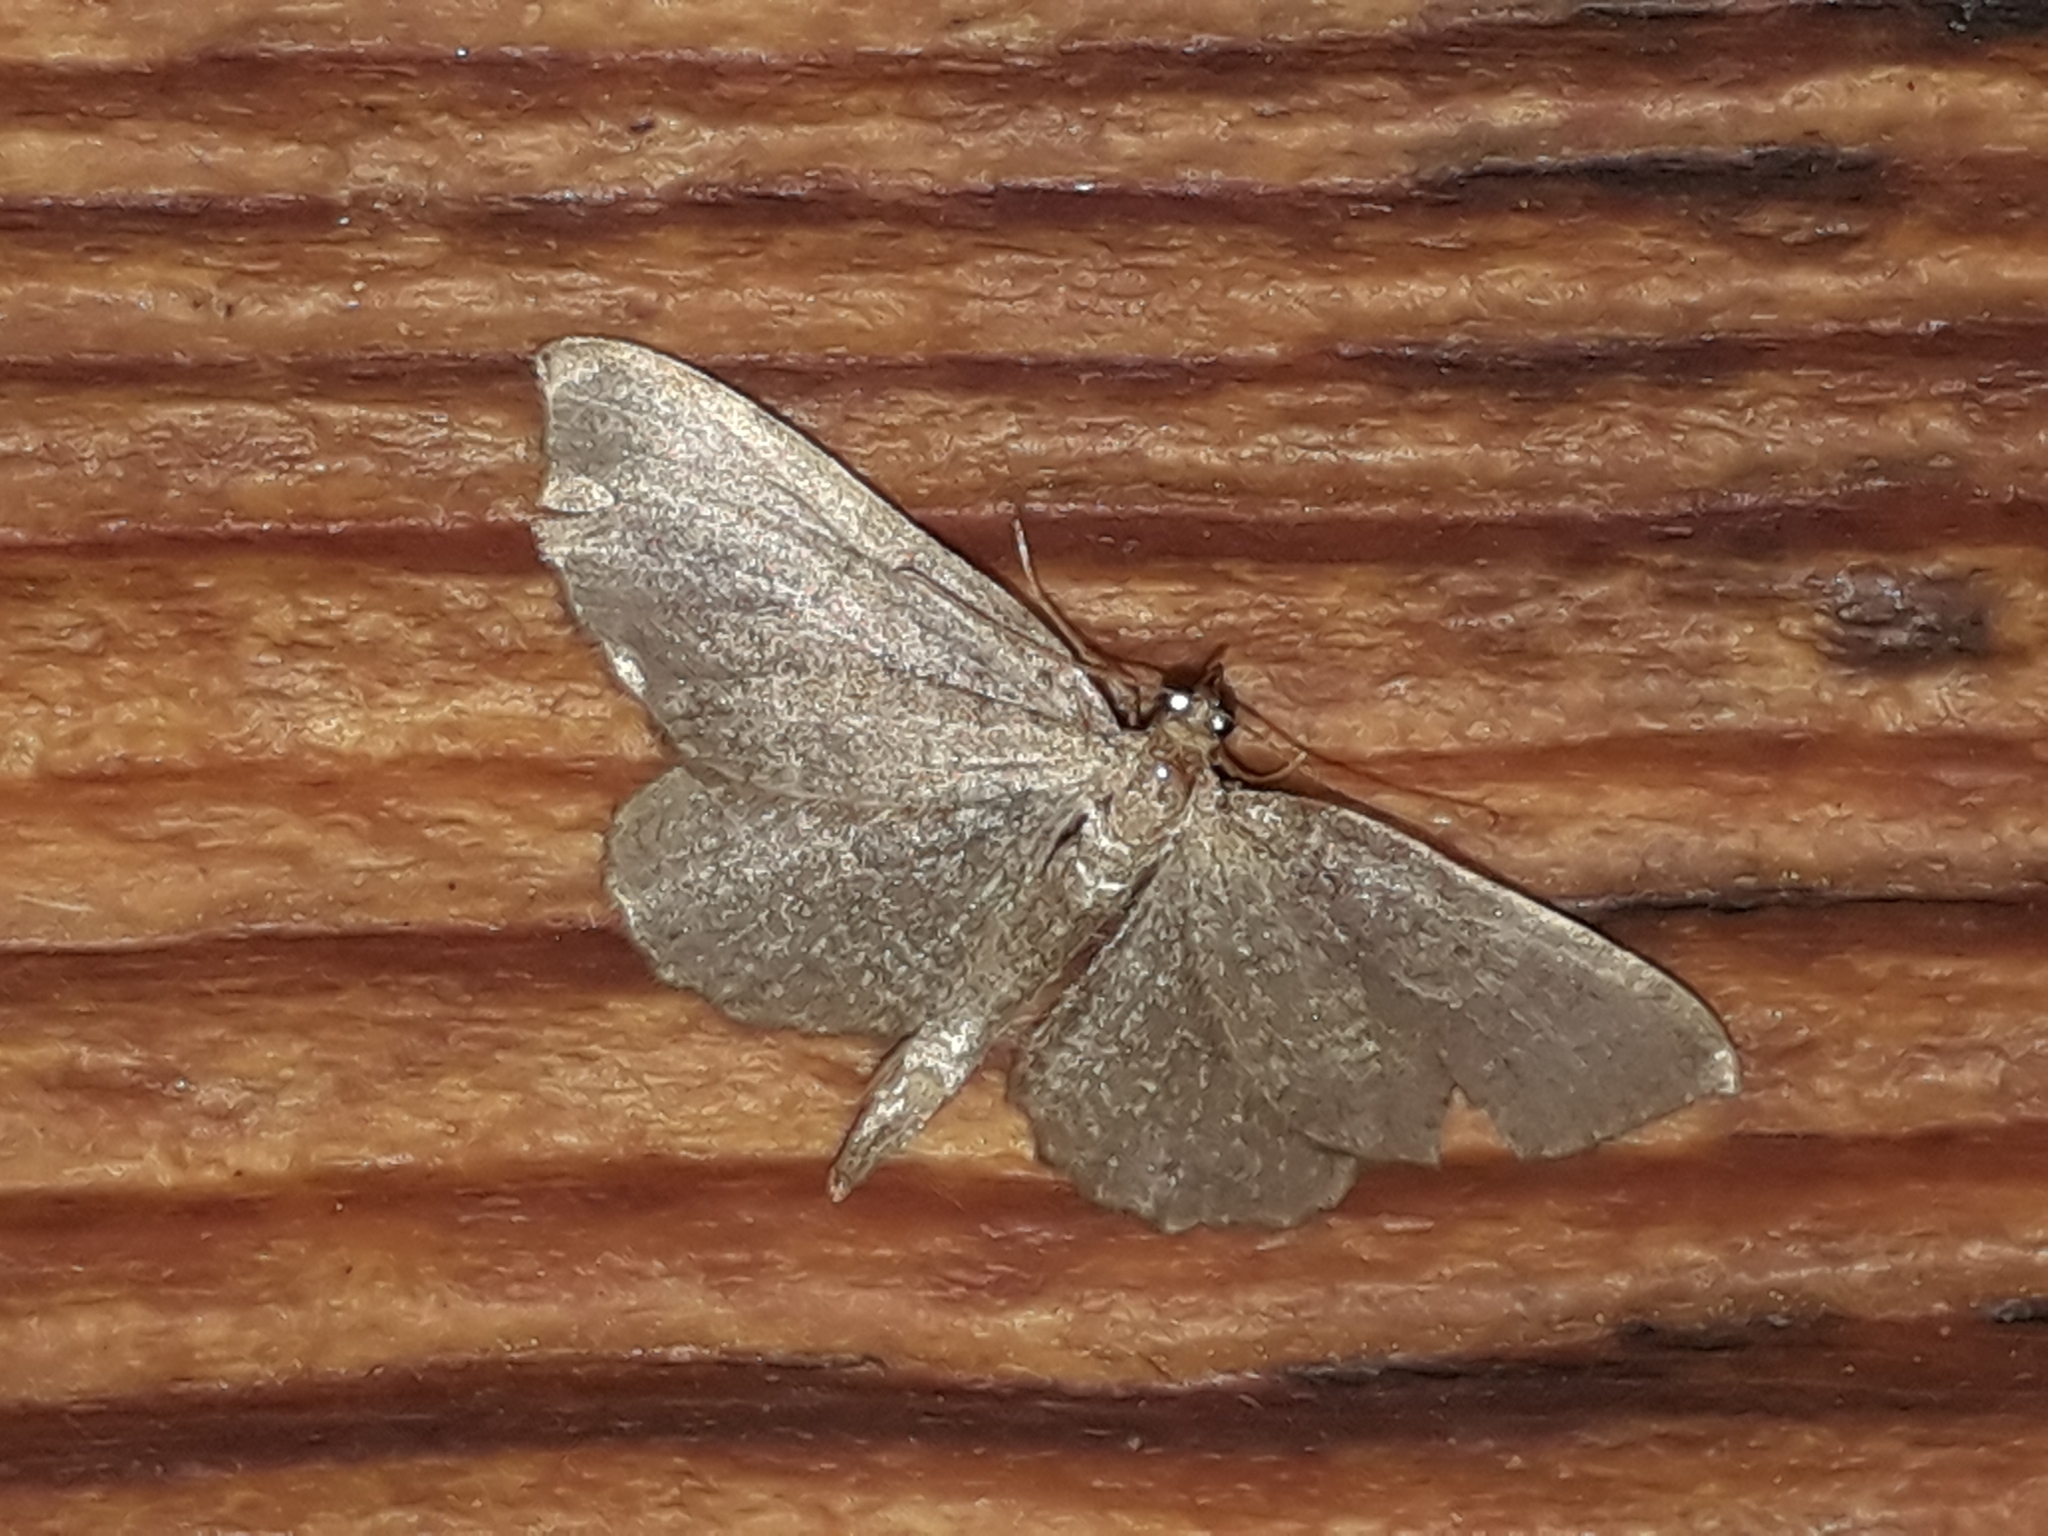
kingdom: Animalia
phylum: Arthropoda
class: Insecta
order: Lepidoptera
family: Geometridae
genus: Philereme
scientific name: Philereme vetulata
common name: Brown scallop
